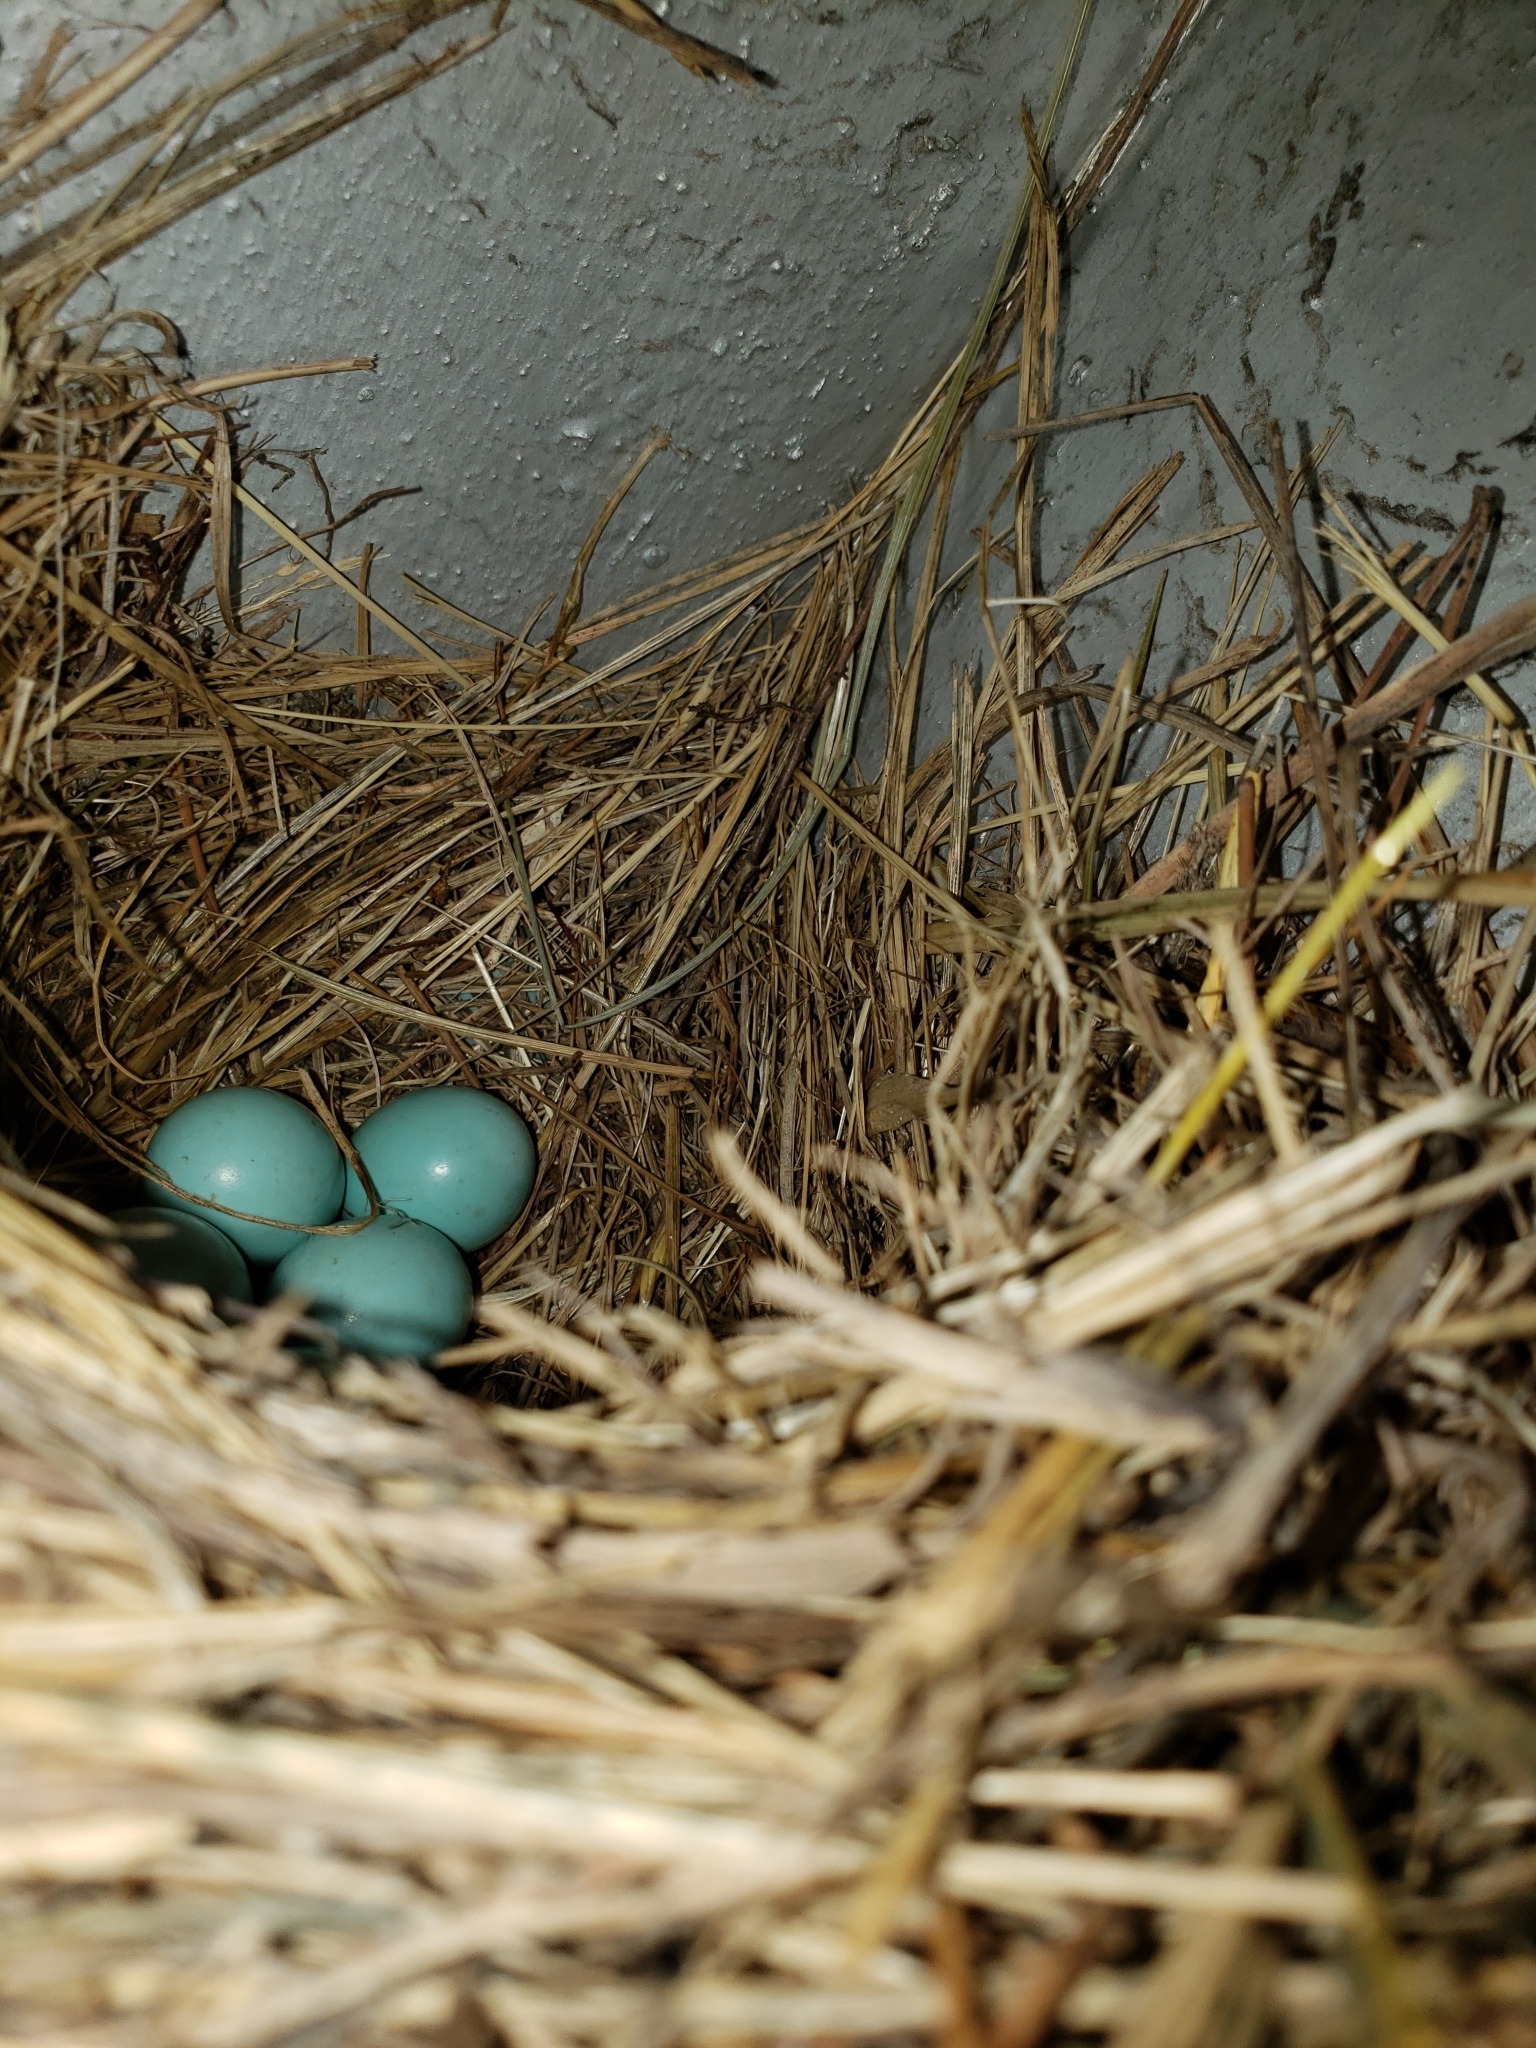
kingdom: Animalia
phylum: Chordata
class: Aves
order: Passeriformes
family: Turdidae
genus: Sialia
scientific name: Sialia sialis
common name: Eastern bluebird
